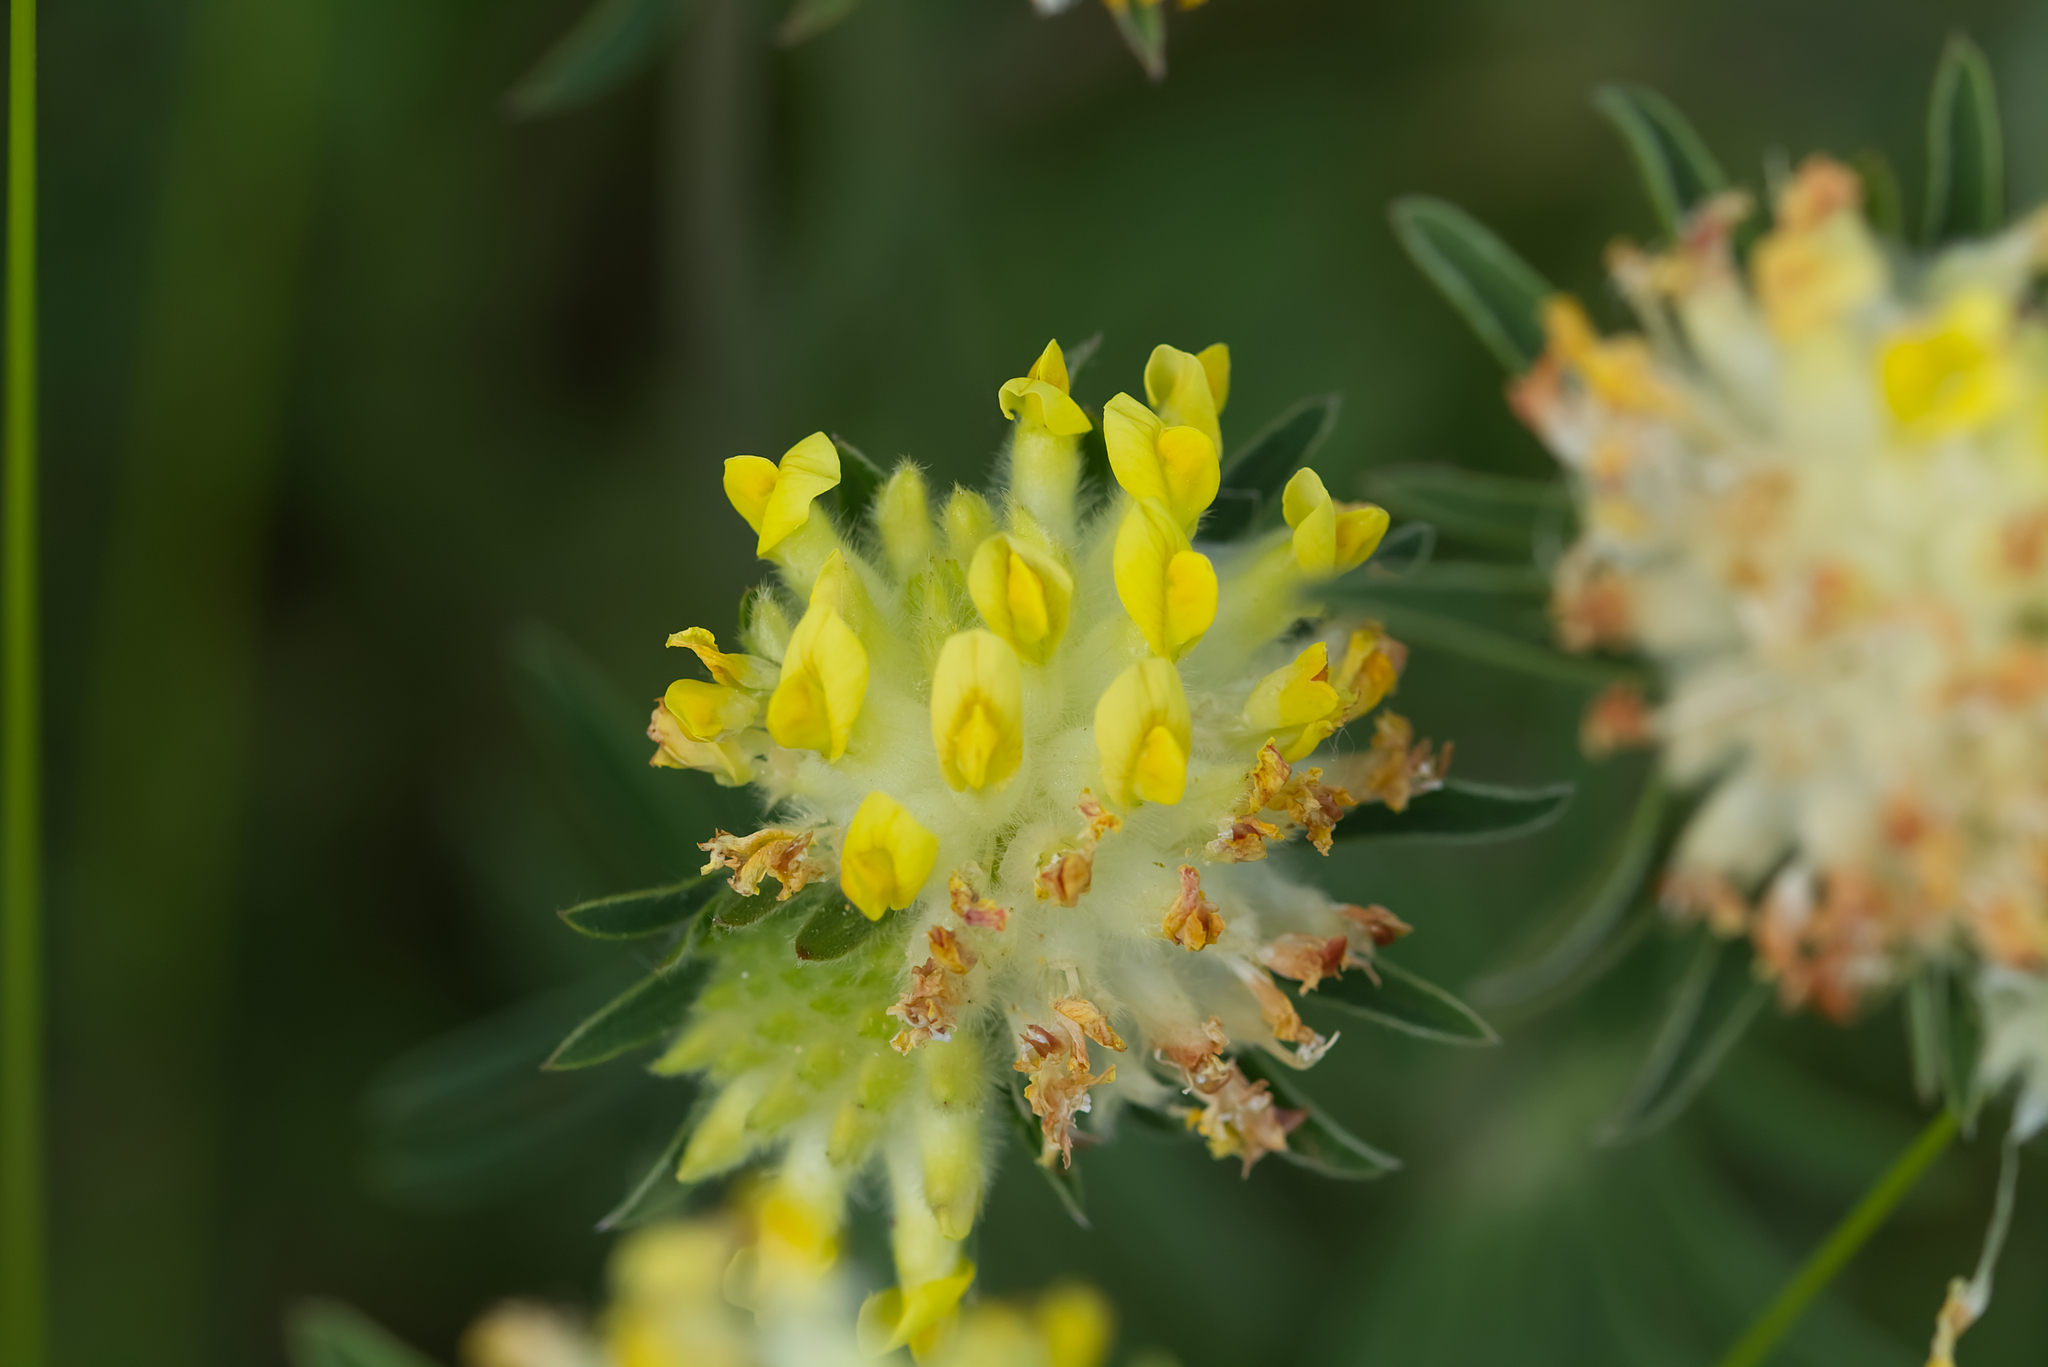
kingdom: Plantae
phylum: Tracheophyta
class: Magnoliopsida
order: Fabales
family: Fabaceae
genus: Anthyllis
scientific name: Anthyllis vulneraria
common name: Kidney vetch
